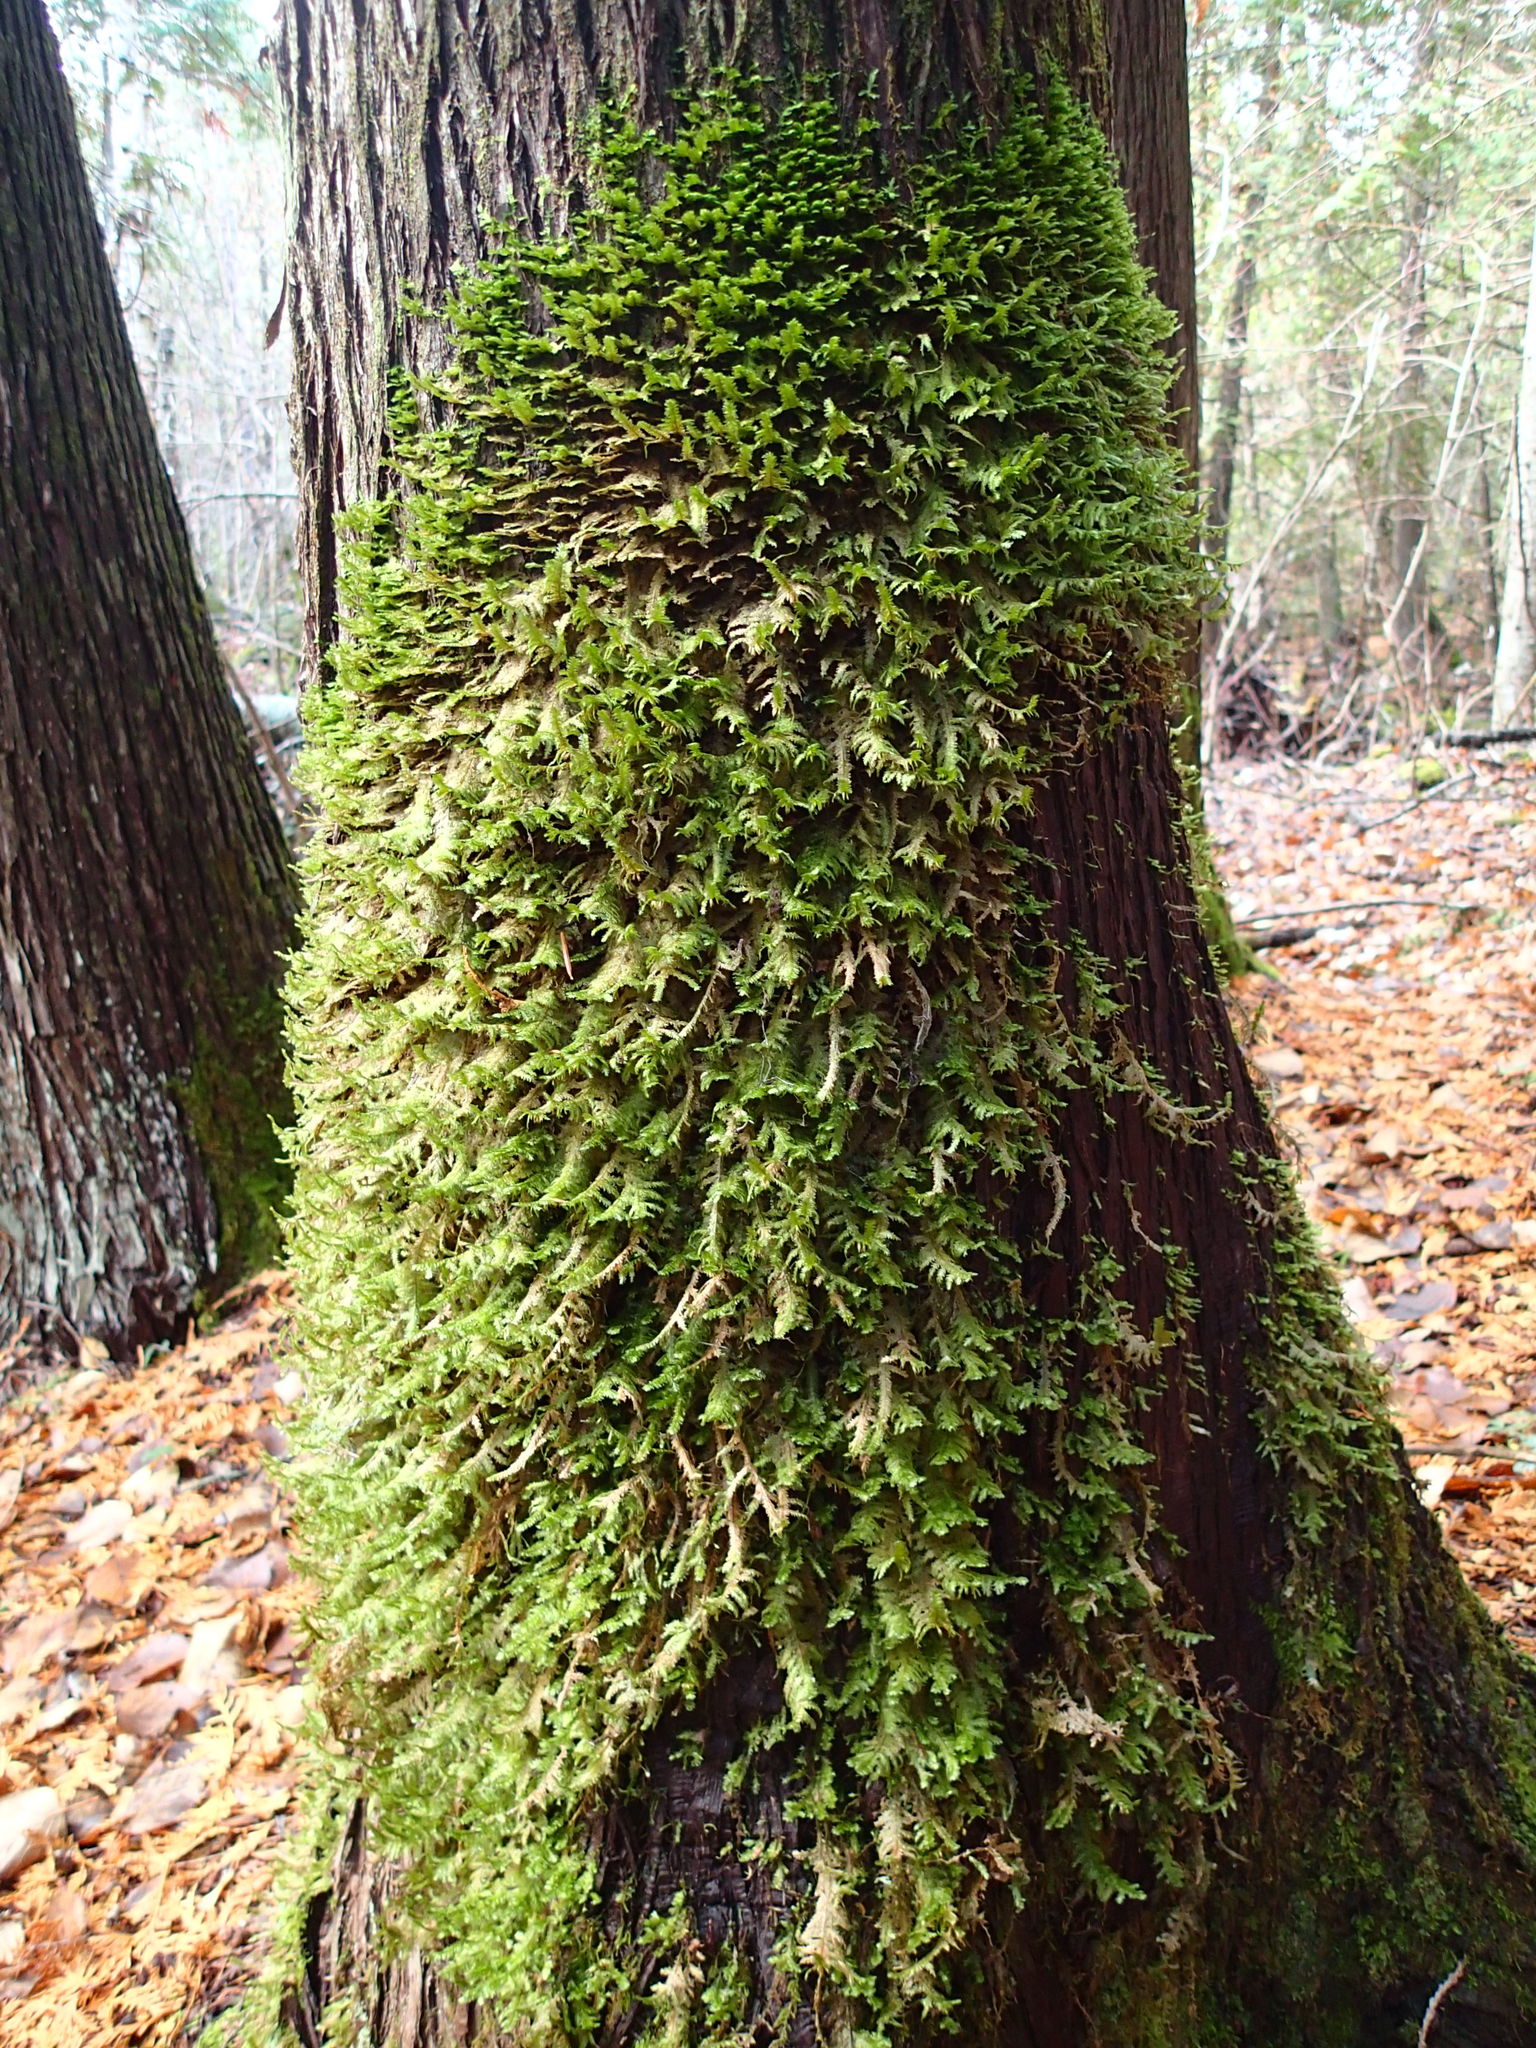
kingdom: Plantae
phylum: Bryophyta
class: Bryopsida
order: Hypnales
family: Neckeraceae
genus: Neckera
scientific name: Neckera pennata
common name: Feathery neckera
